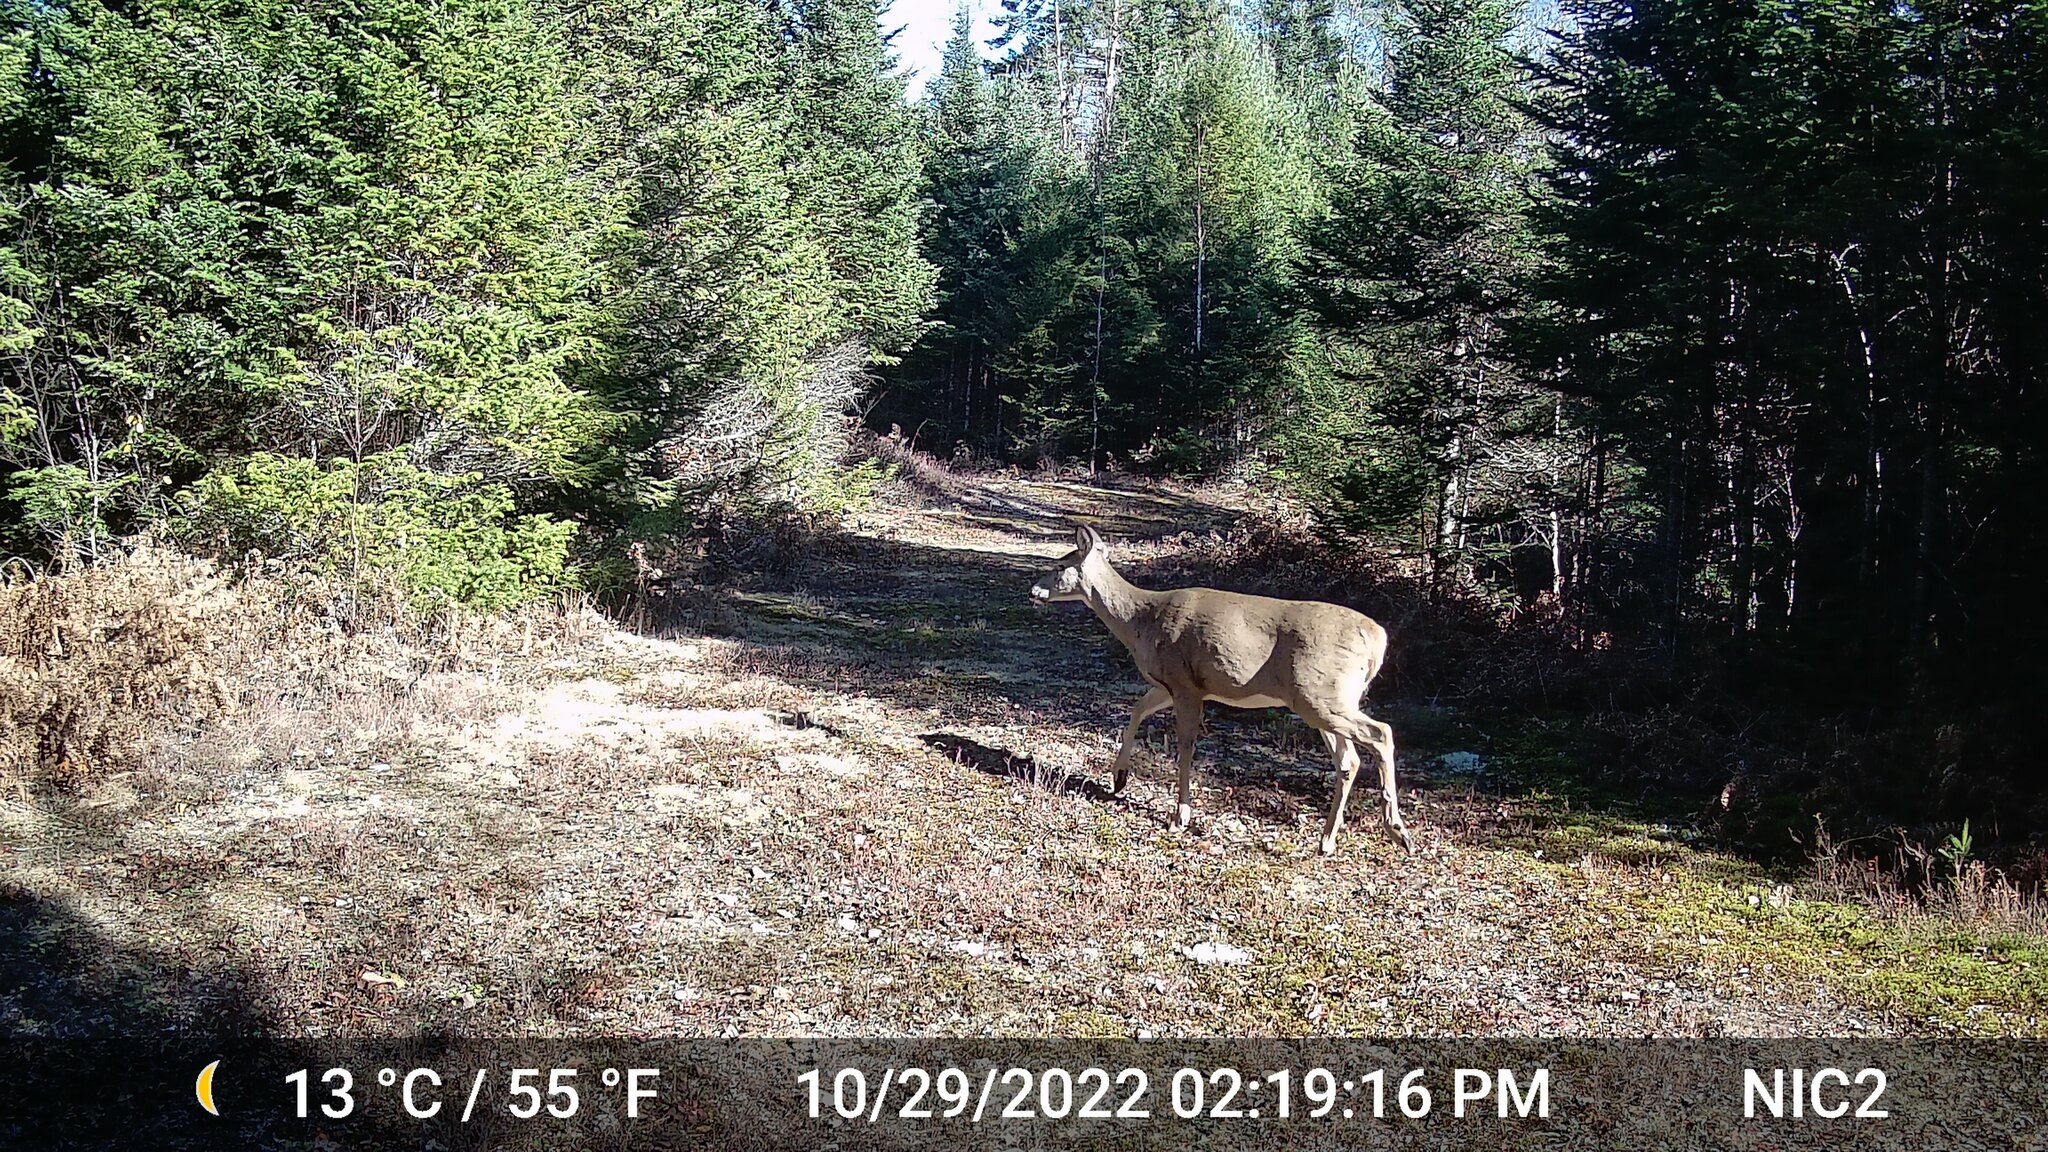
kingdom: Animalia
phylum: Chordata
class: Mammalia
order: Artiodactyla
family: Cervidae
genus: Odocoileus
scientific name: Odocoileus virginianus
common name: White-tailed deer
